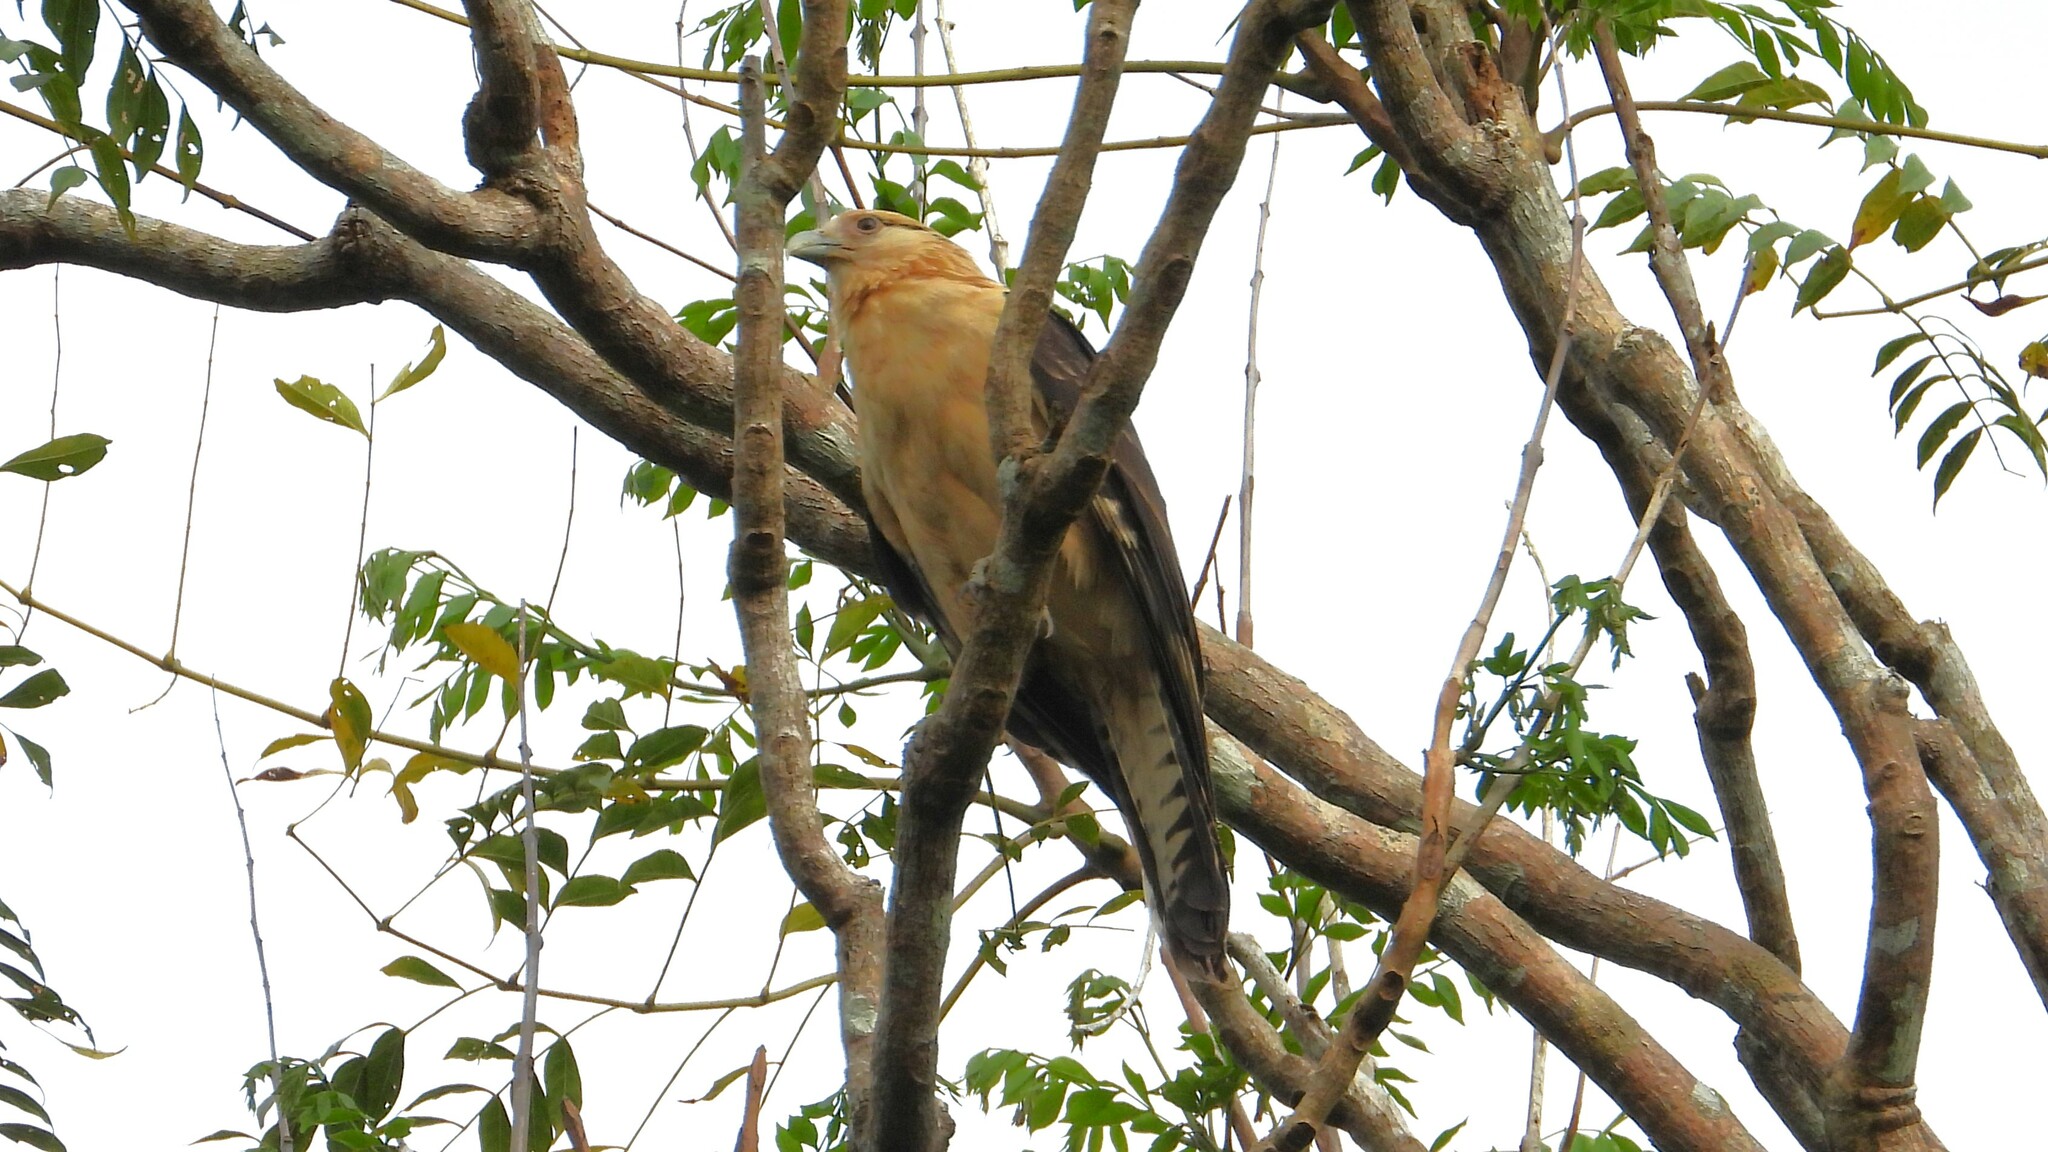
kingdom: Animalia
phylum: Chordata
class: Aves
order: Falconiformes
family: Falconidae
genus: Daptrius
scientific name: Daptrius
